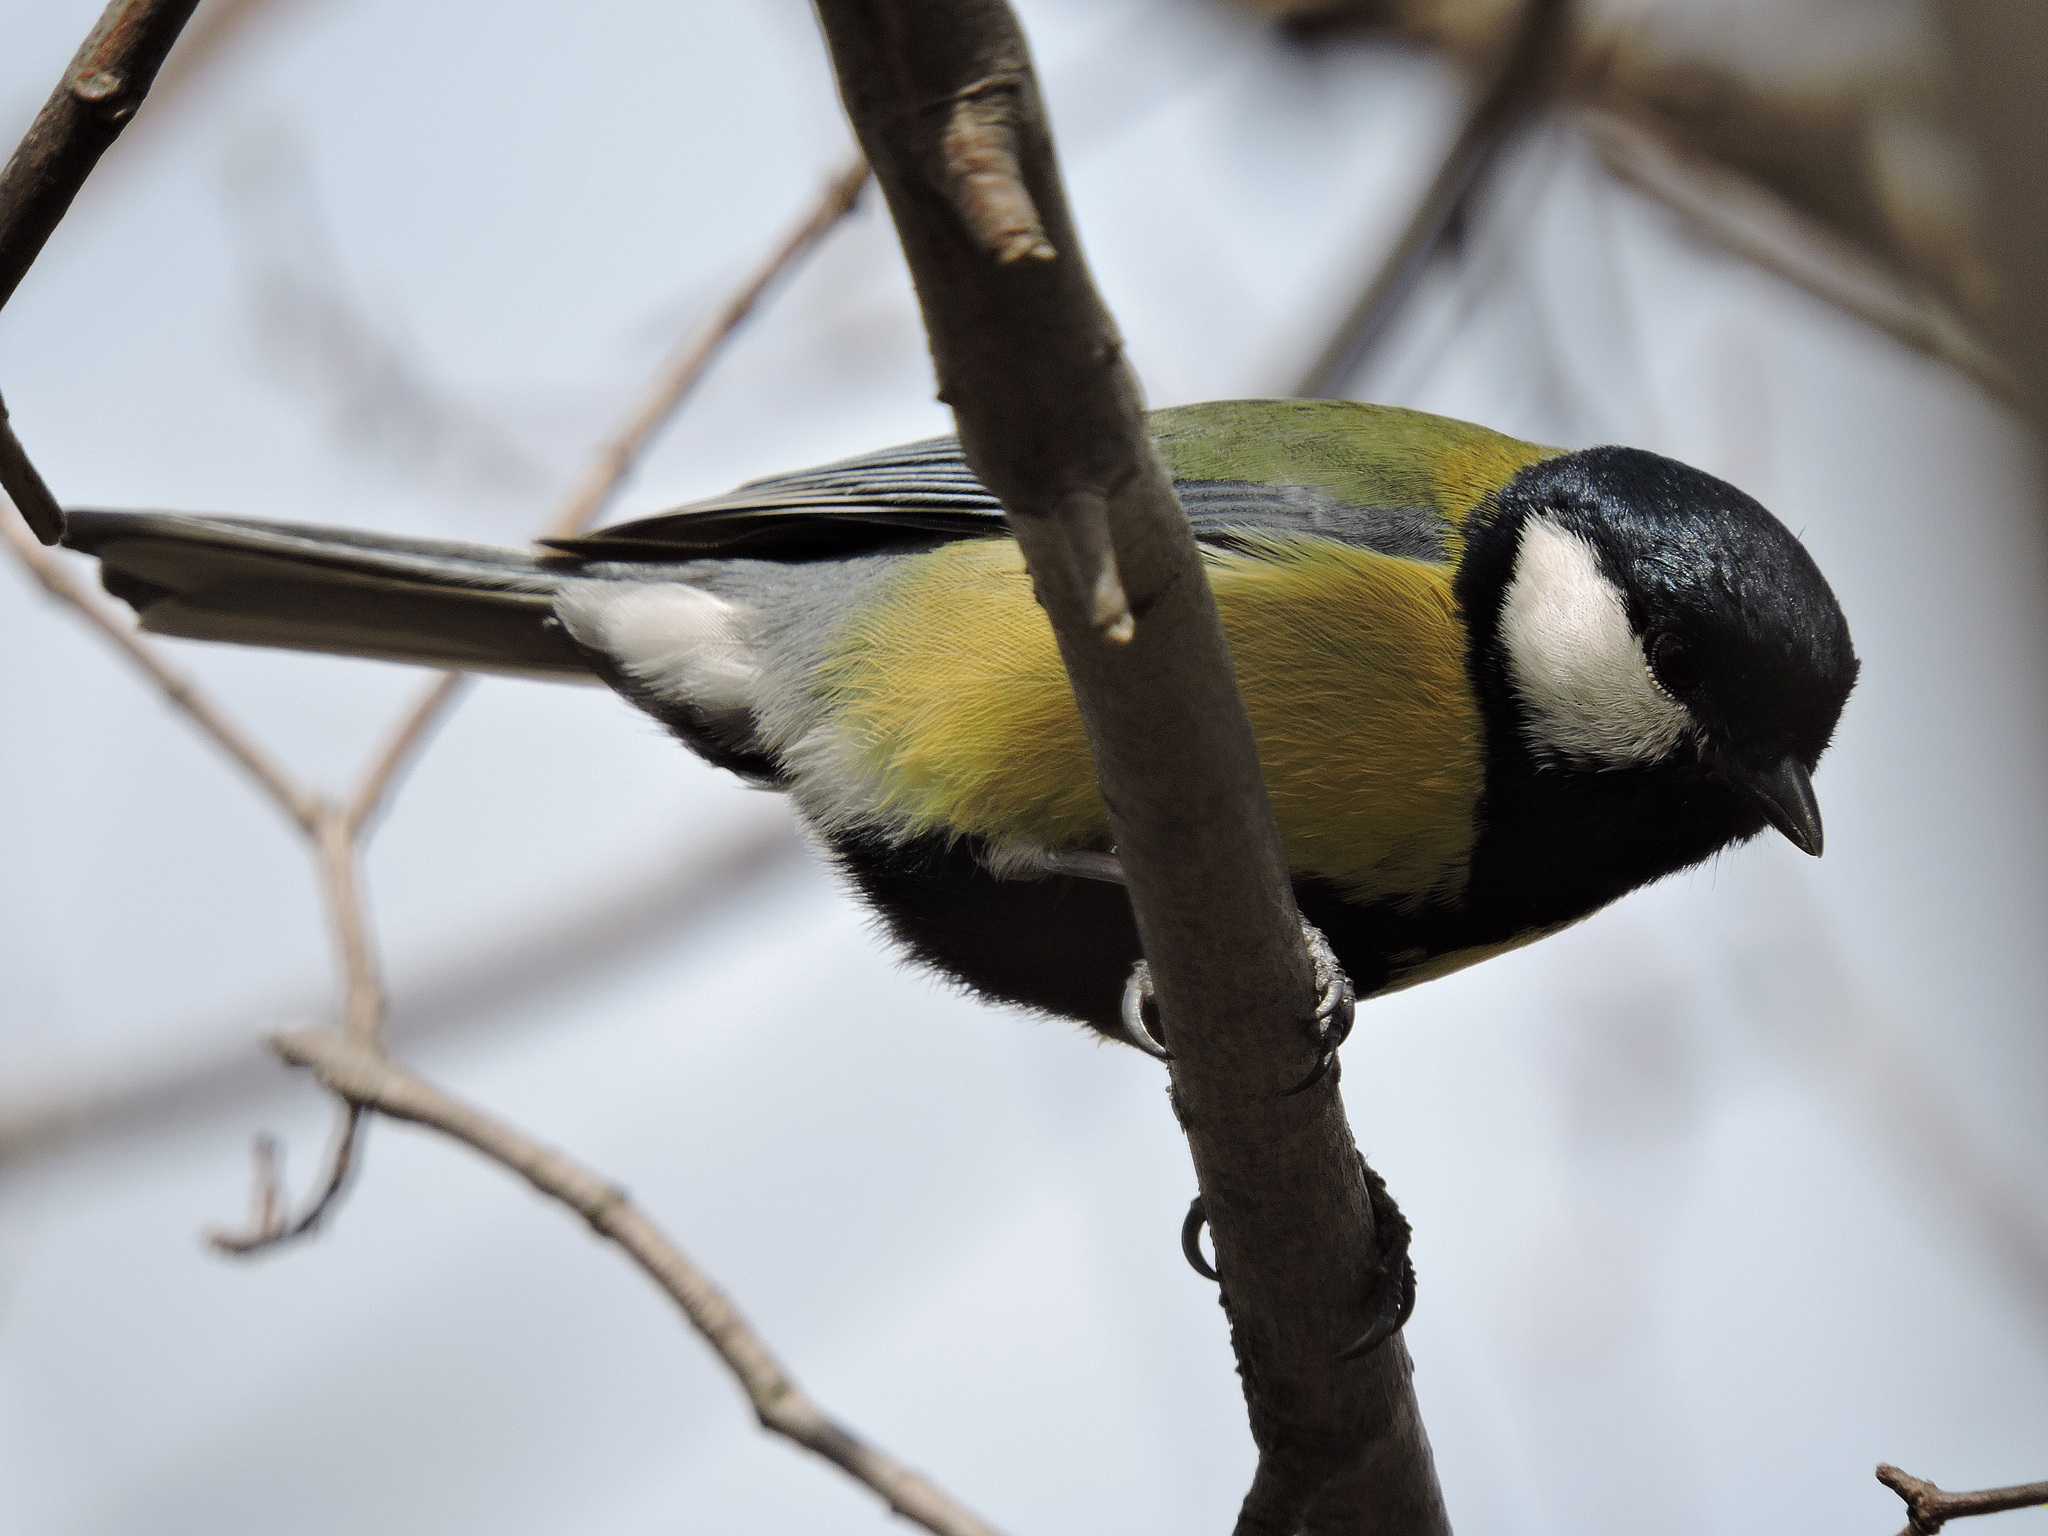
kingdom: Animalia
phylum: Chordata
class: Aves
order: Passeriformes
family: Paridae
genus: Parus
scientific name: Parus major
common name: Great tit
